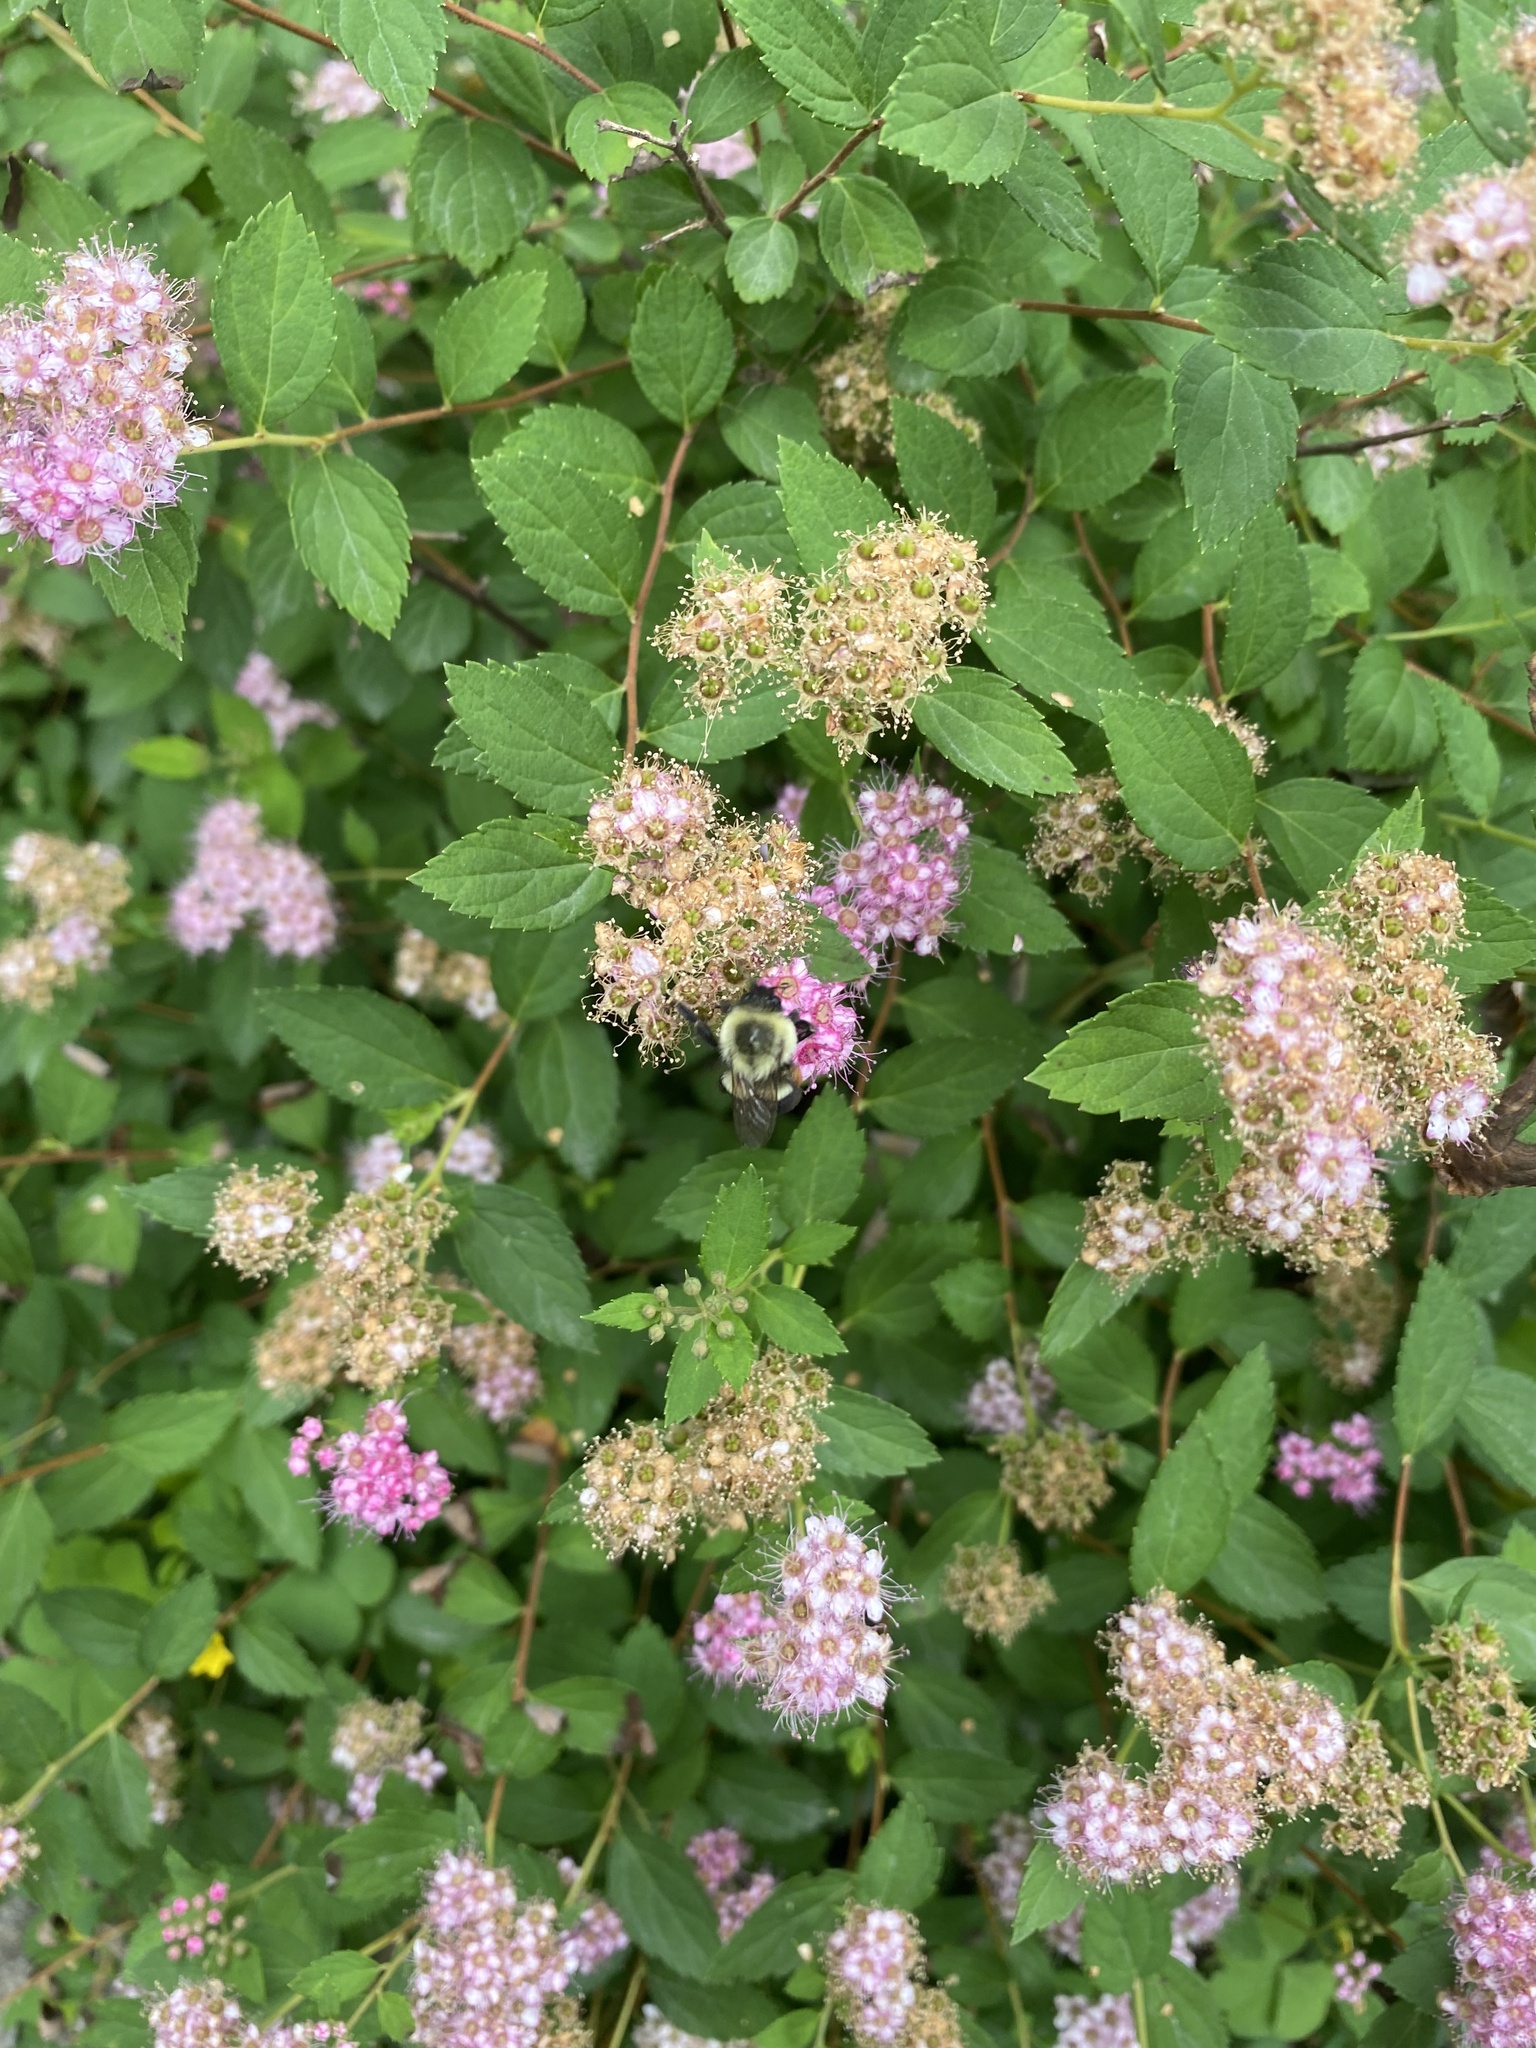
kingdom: Animalia
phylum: Arthropoda
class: Insecta
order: Hymenoptera
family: Apidae
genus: Bombus
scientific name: Bombus impatiens
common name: Common eastern bumble bee
